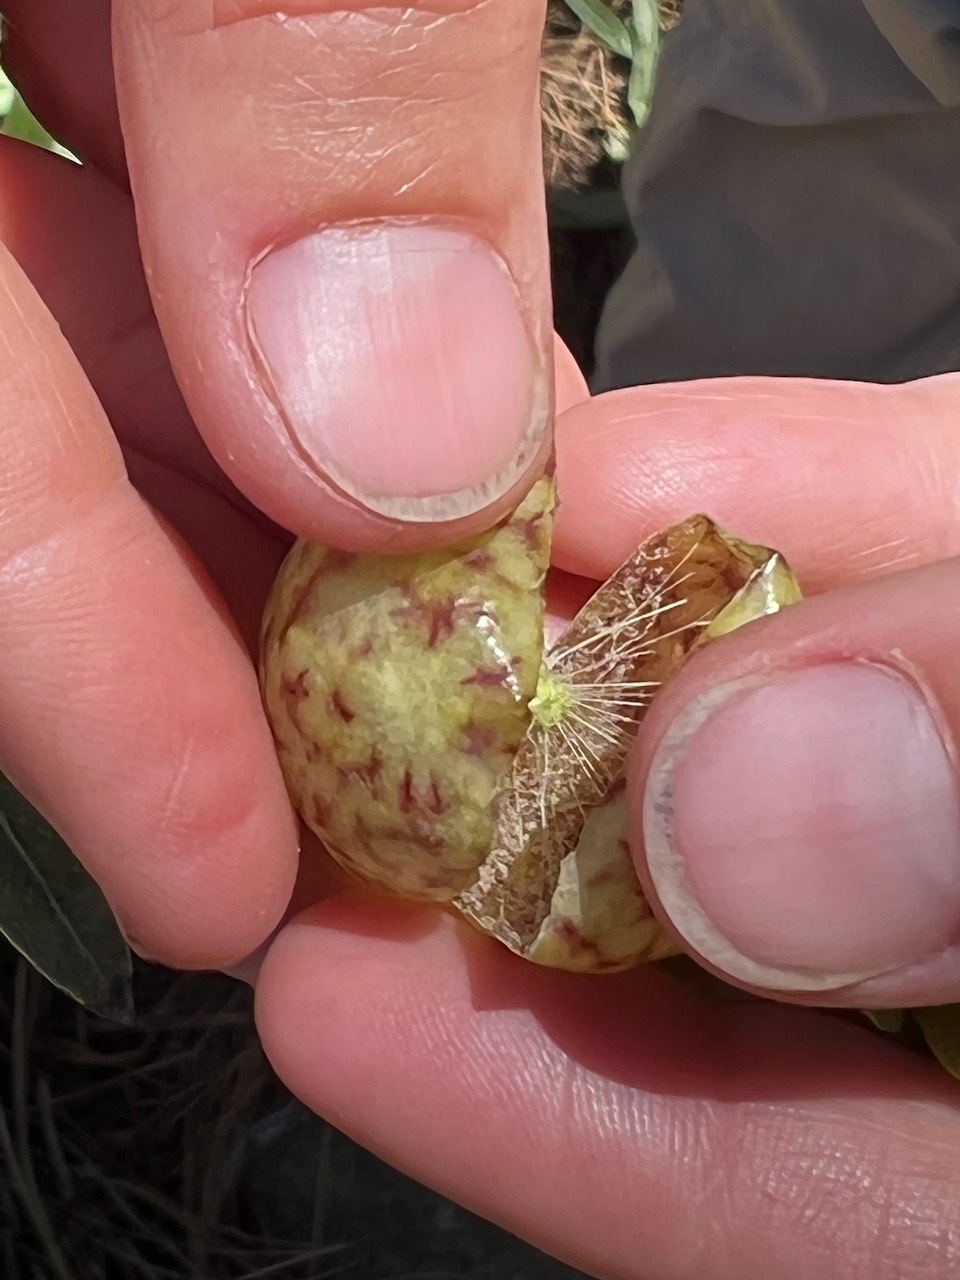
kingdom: Animalia
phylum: Arthropoda
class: Insecta
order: Hymenoptera
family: Cynipidae
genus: Andricus
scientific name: Andricus
